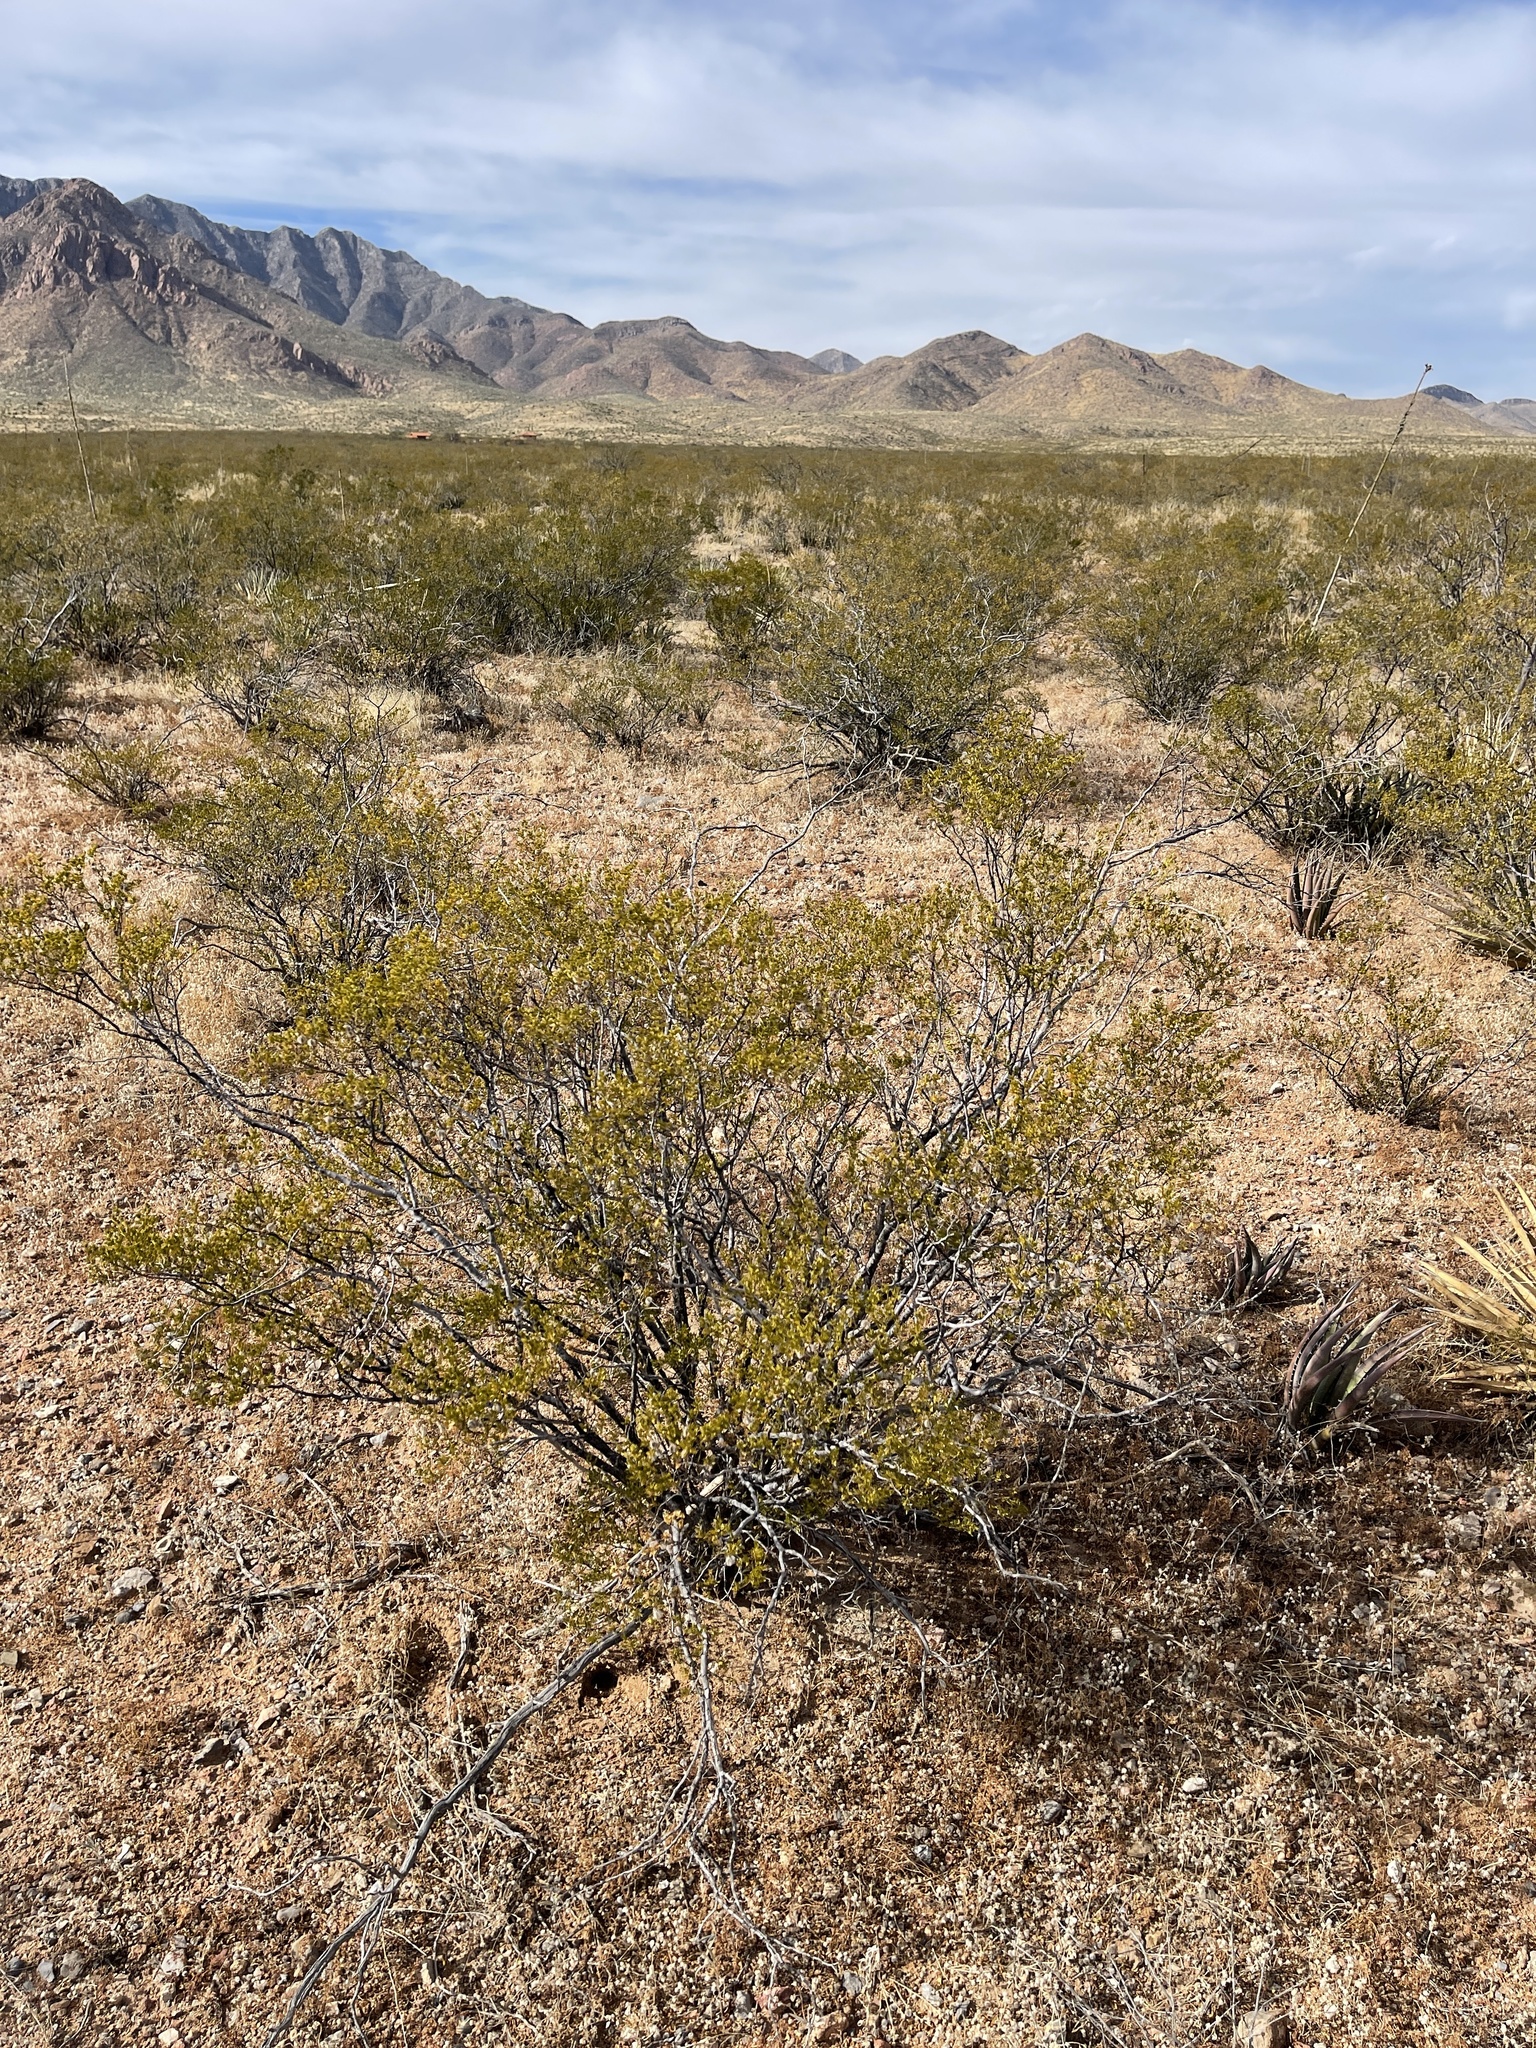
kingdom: Plantae
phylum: Tracheophyta
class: Magnoliopsida
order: Zygophyllales
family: Zygophyllaceae
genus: Larrea
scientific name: Larrea tridentata
